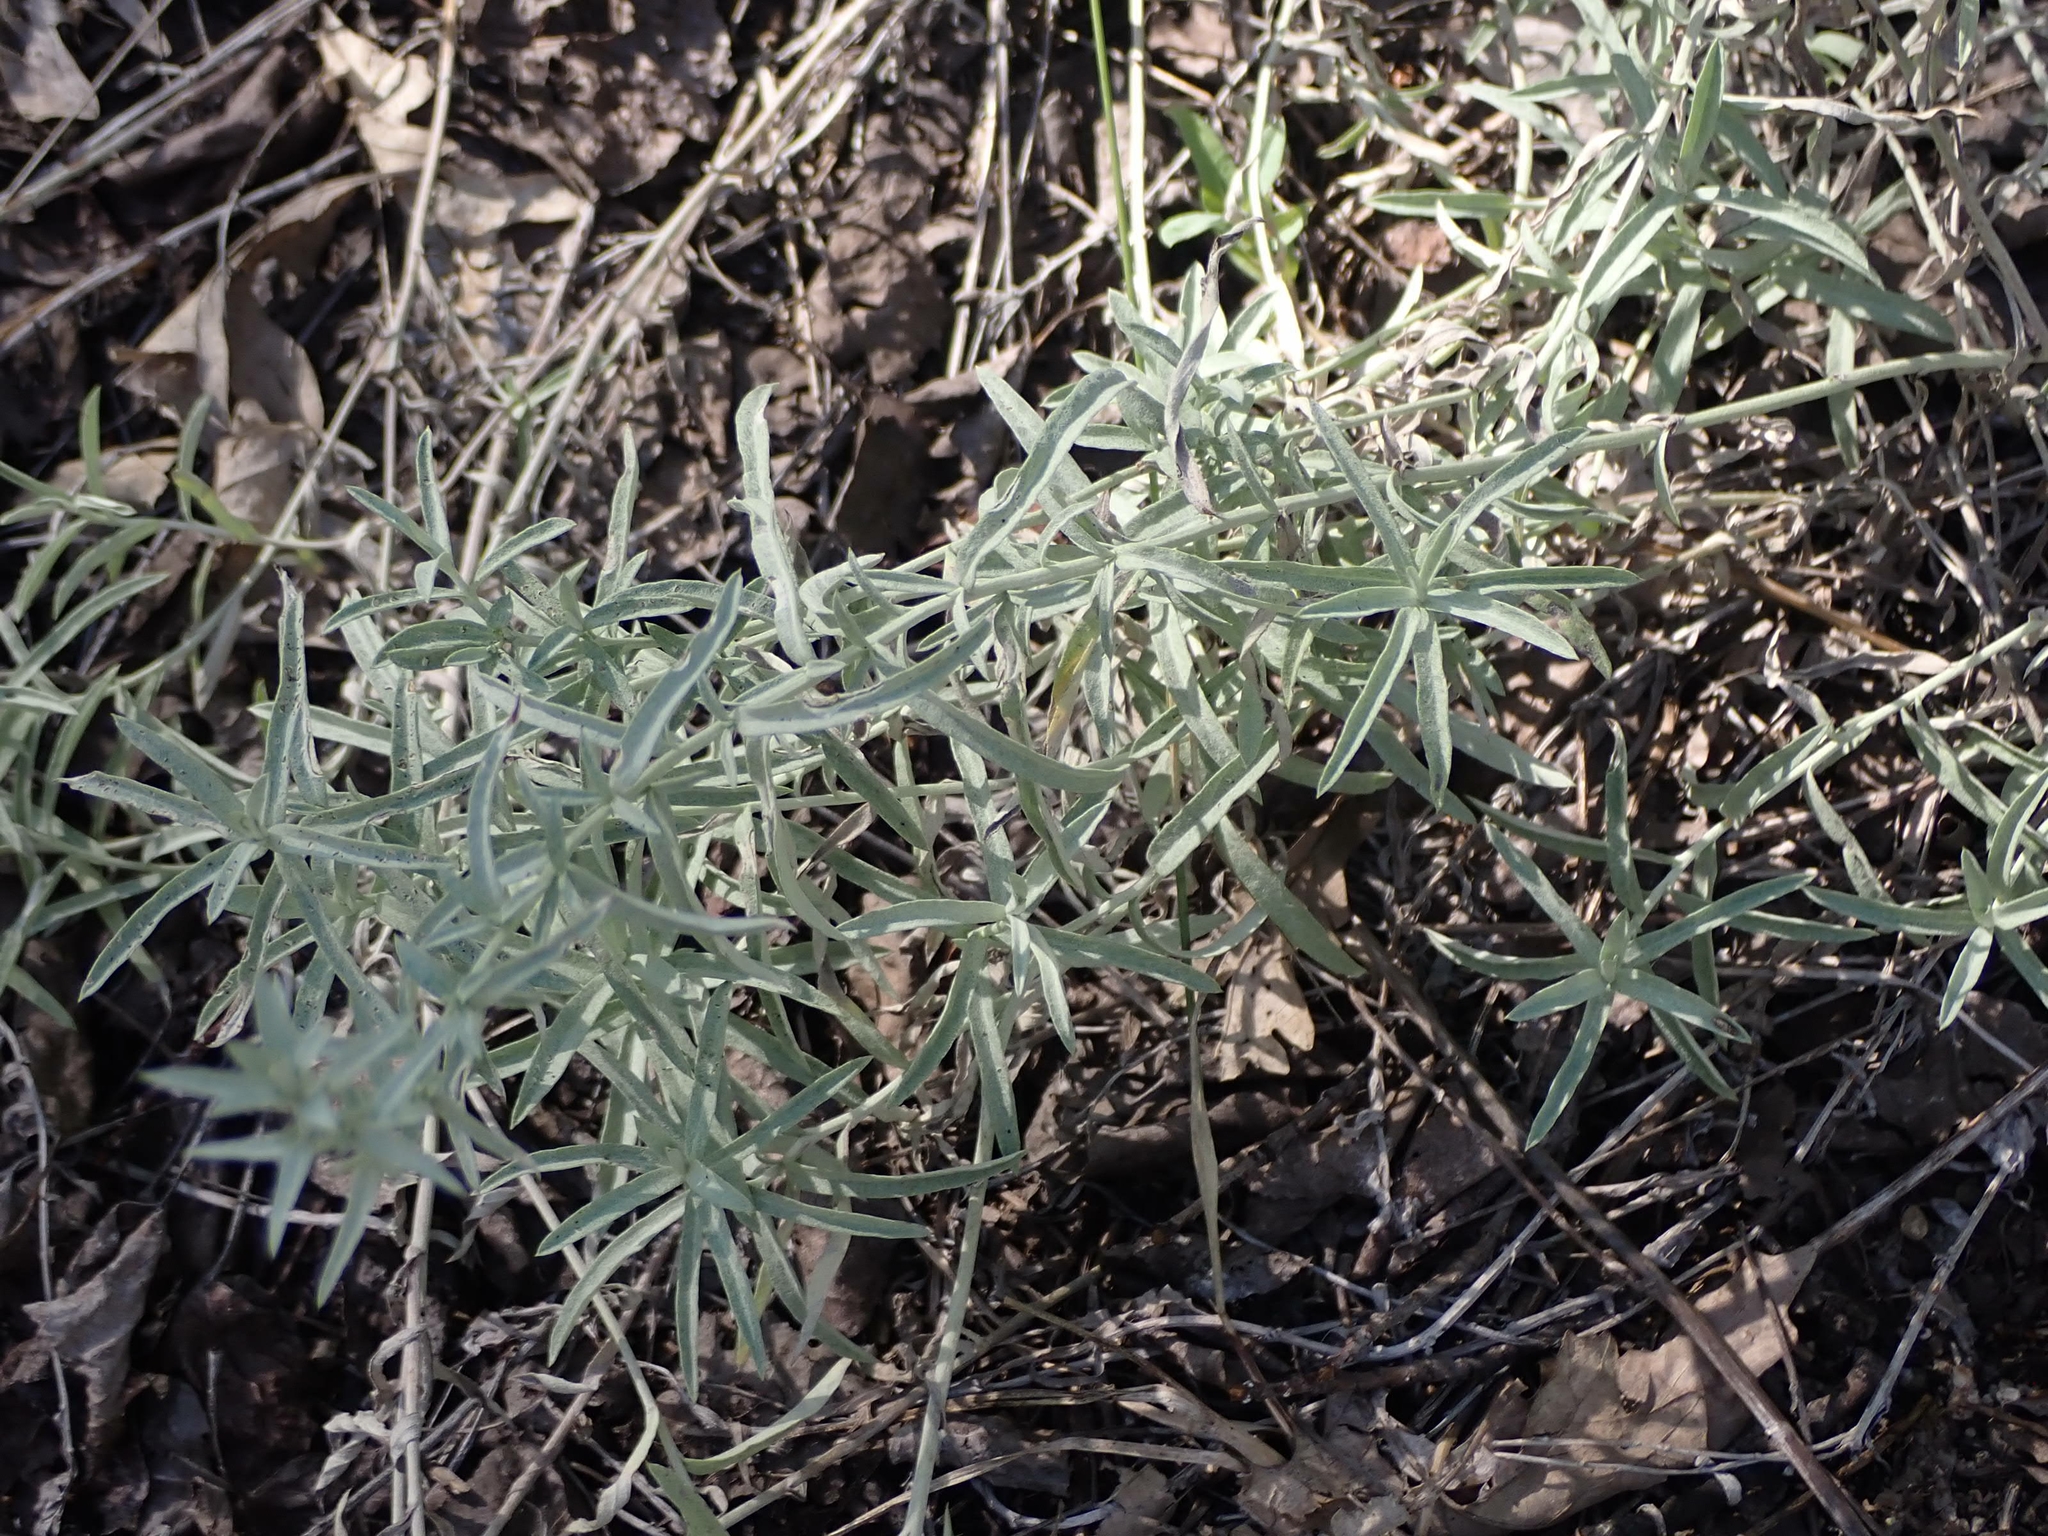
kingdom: Plantae
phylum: Tracheophyta
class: Magnoliopsida
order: Asterales
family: Asteraceae
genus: Artemisia
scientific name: Artemisia ludoviciana
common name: Western mugwort
